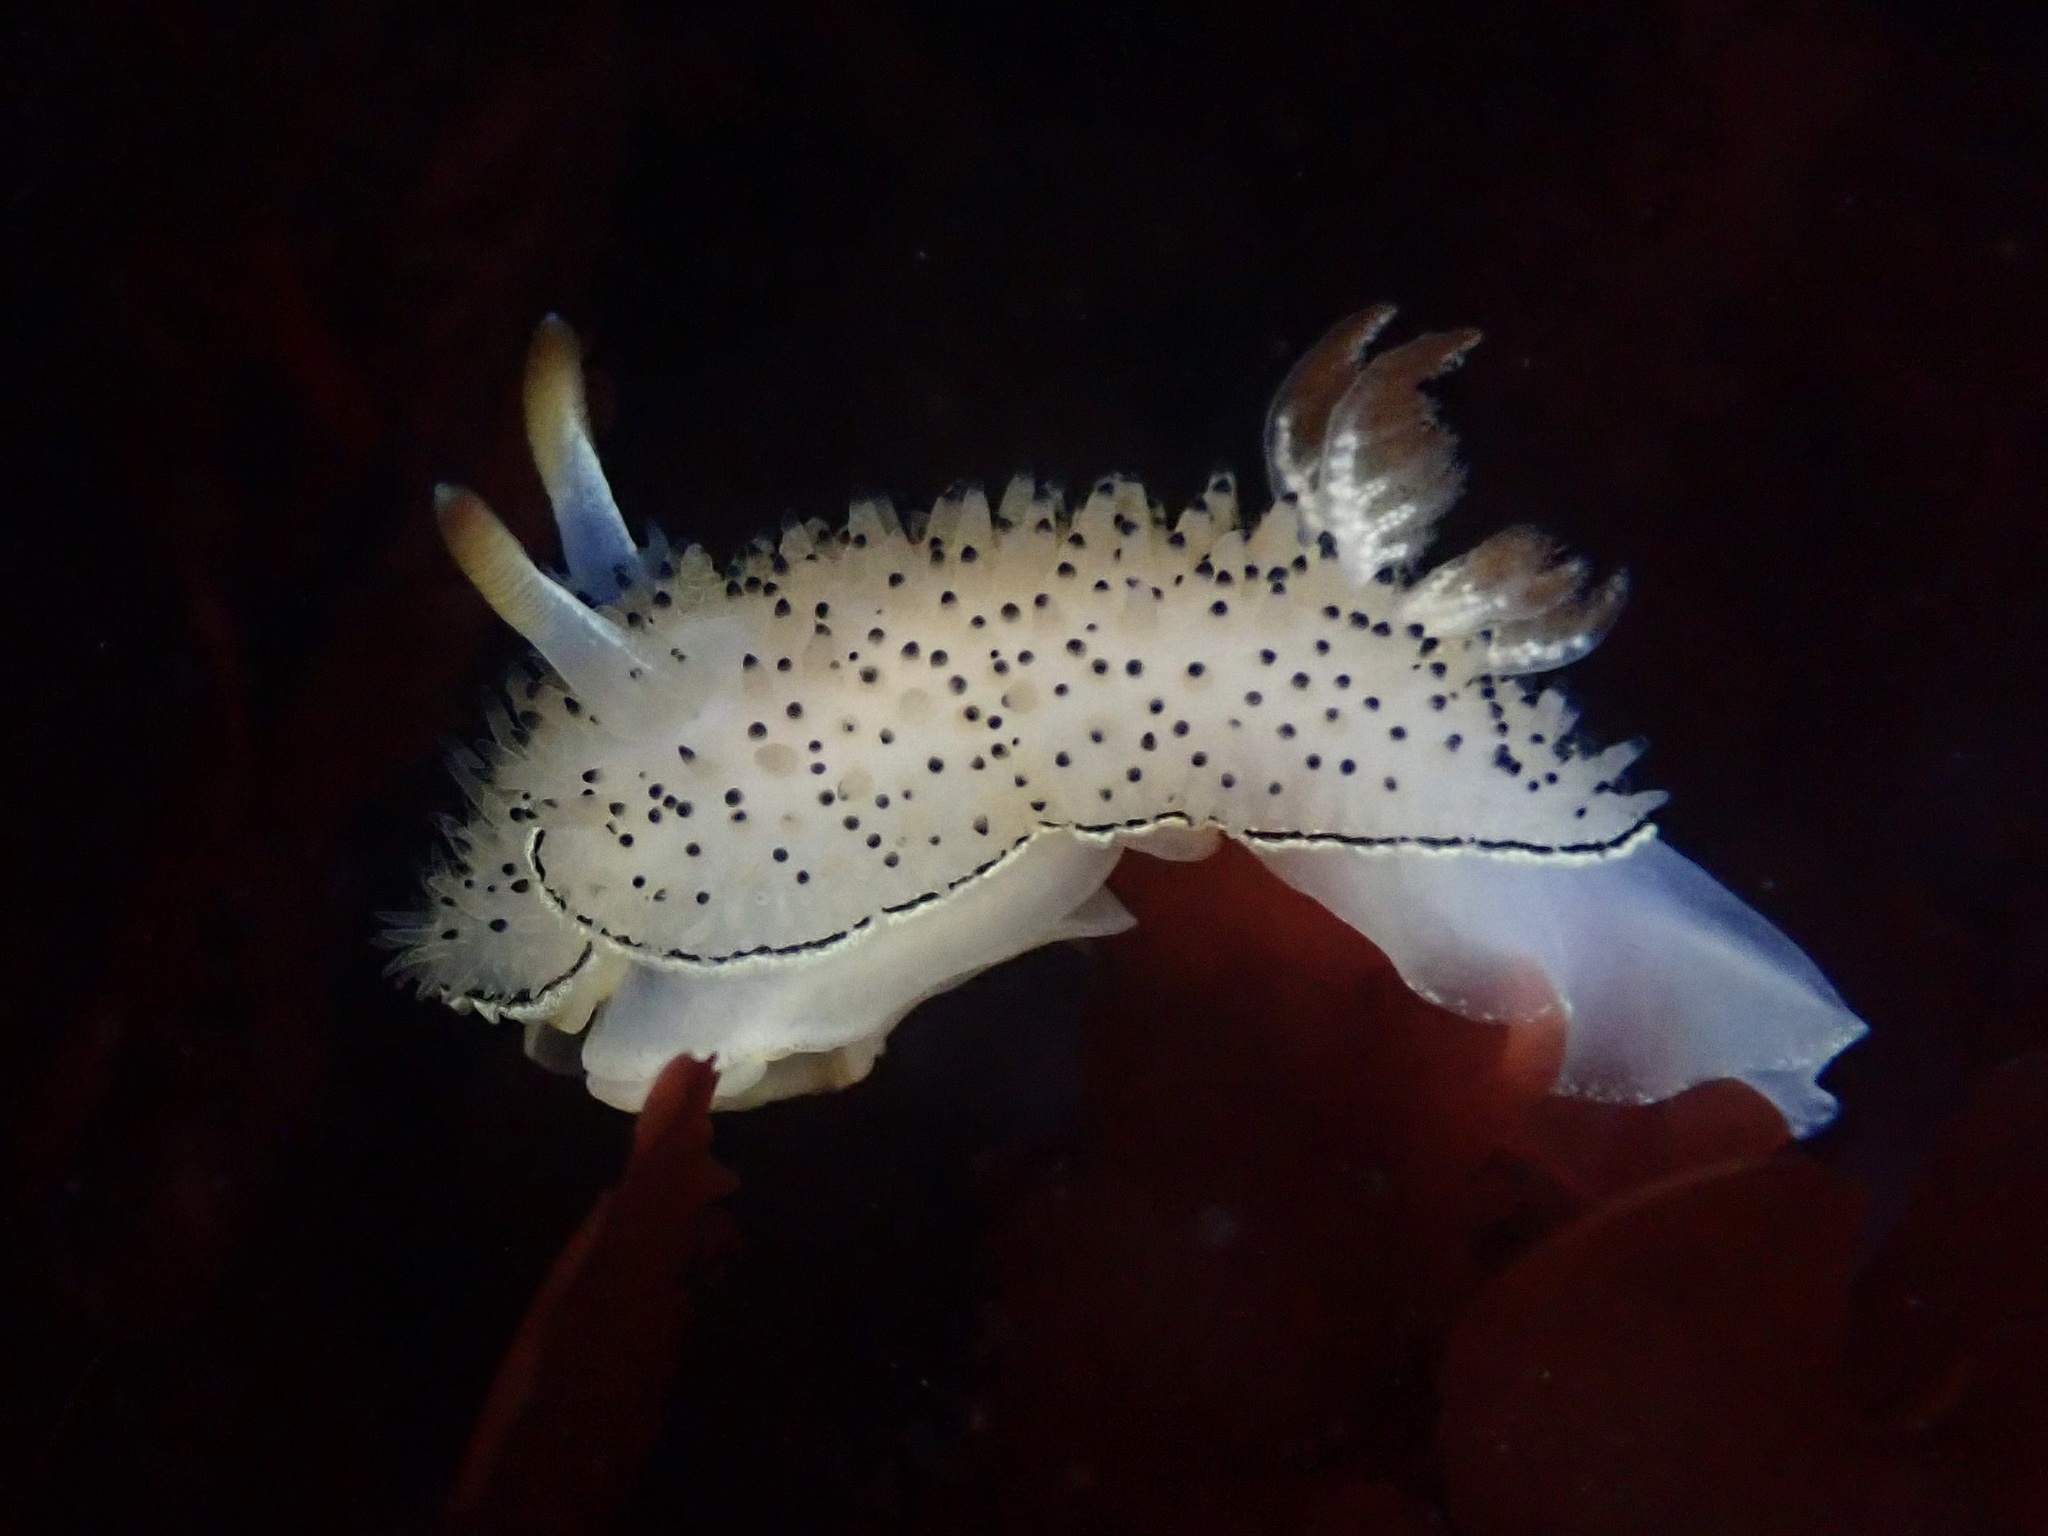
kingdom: Animalia
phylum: Mollusca
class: Gastropoda
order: Nudibranchia
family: Onchidorididae
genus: Acanthodoris
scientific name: Acanthodoris rhodoceras
